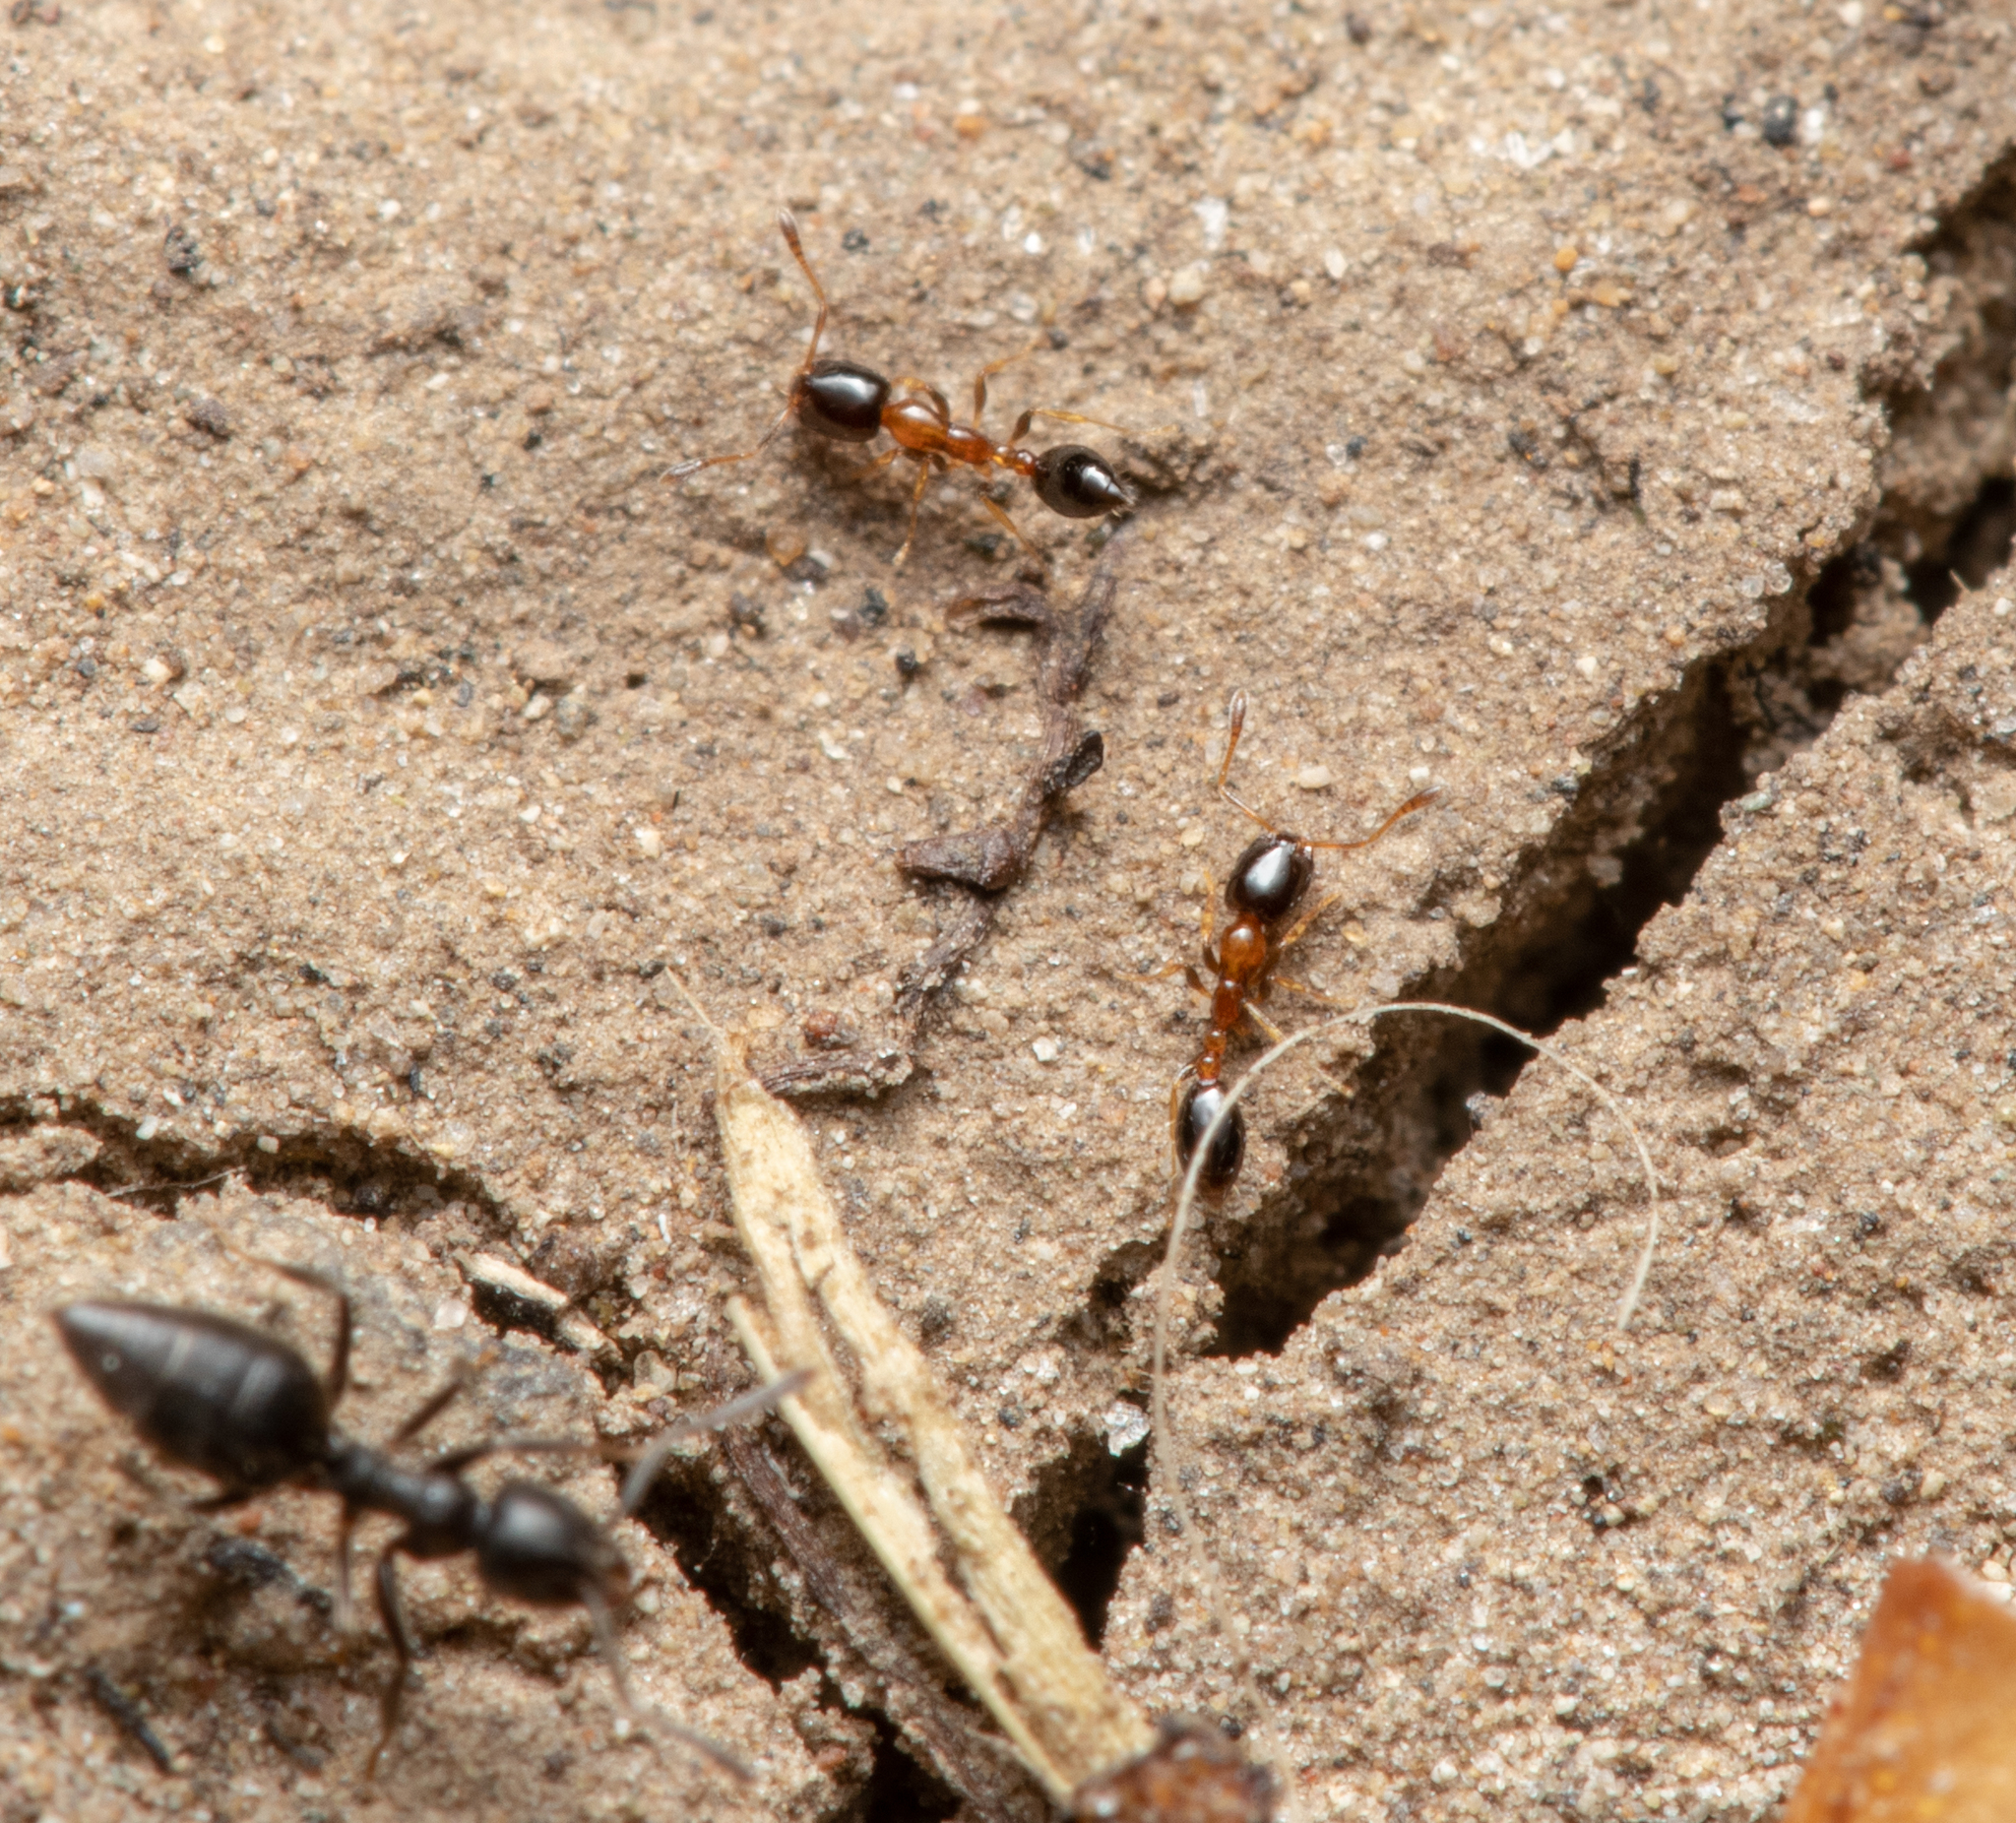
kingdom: Animalia
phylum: Arthropoda
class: Insecta
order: Hymenoptera
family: Formicidae
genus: Monomorium
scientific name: Monomorium floricola
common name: Bicolored trailing ant
